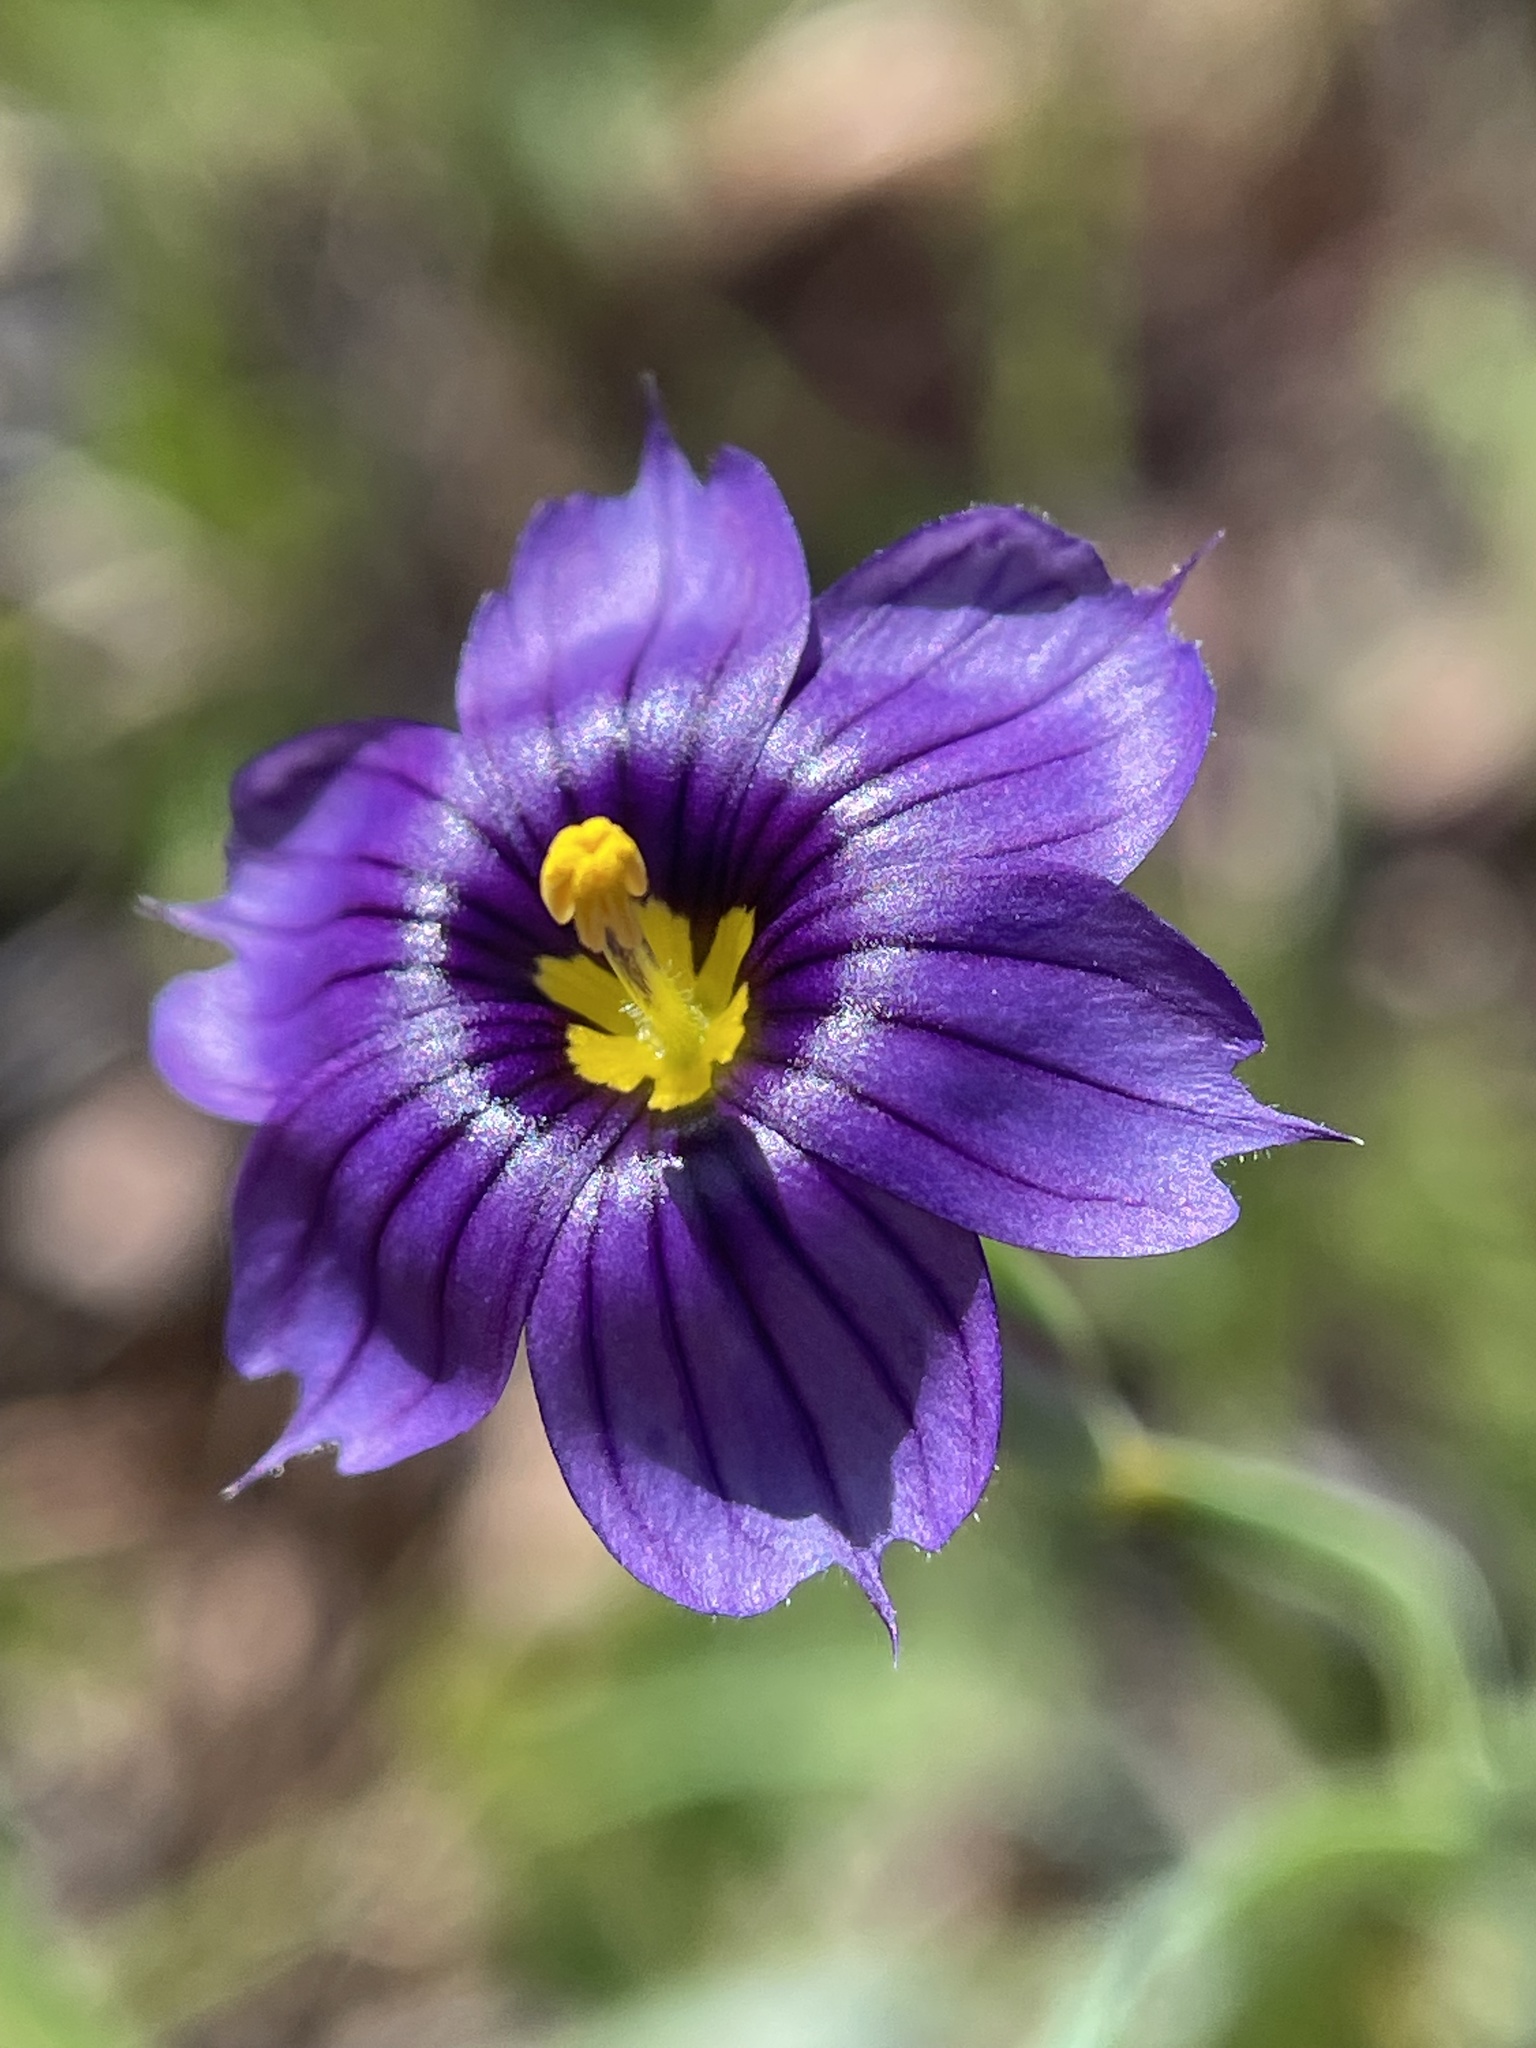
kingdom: Plantae
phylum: Tracheophyta
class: Liliopsida
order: Asparagales
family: Iridaceae
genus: Sisyrinchium
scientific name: Sisyrinchium bellum
